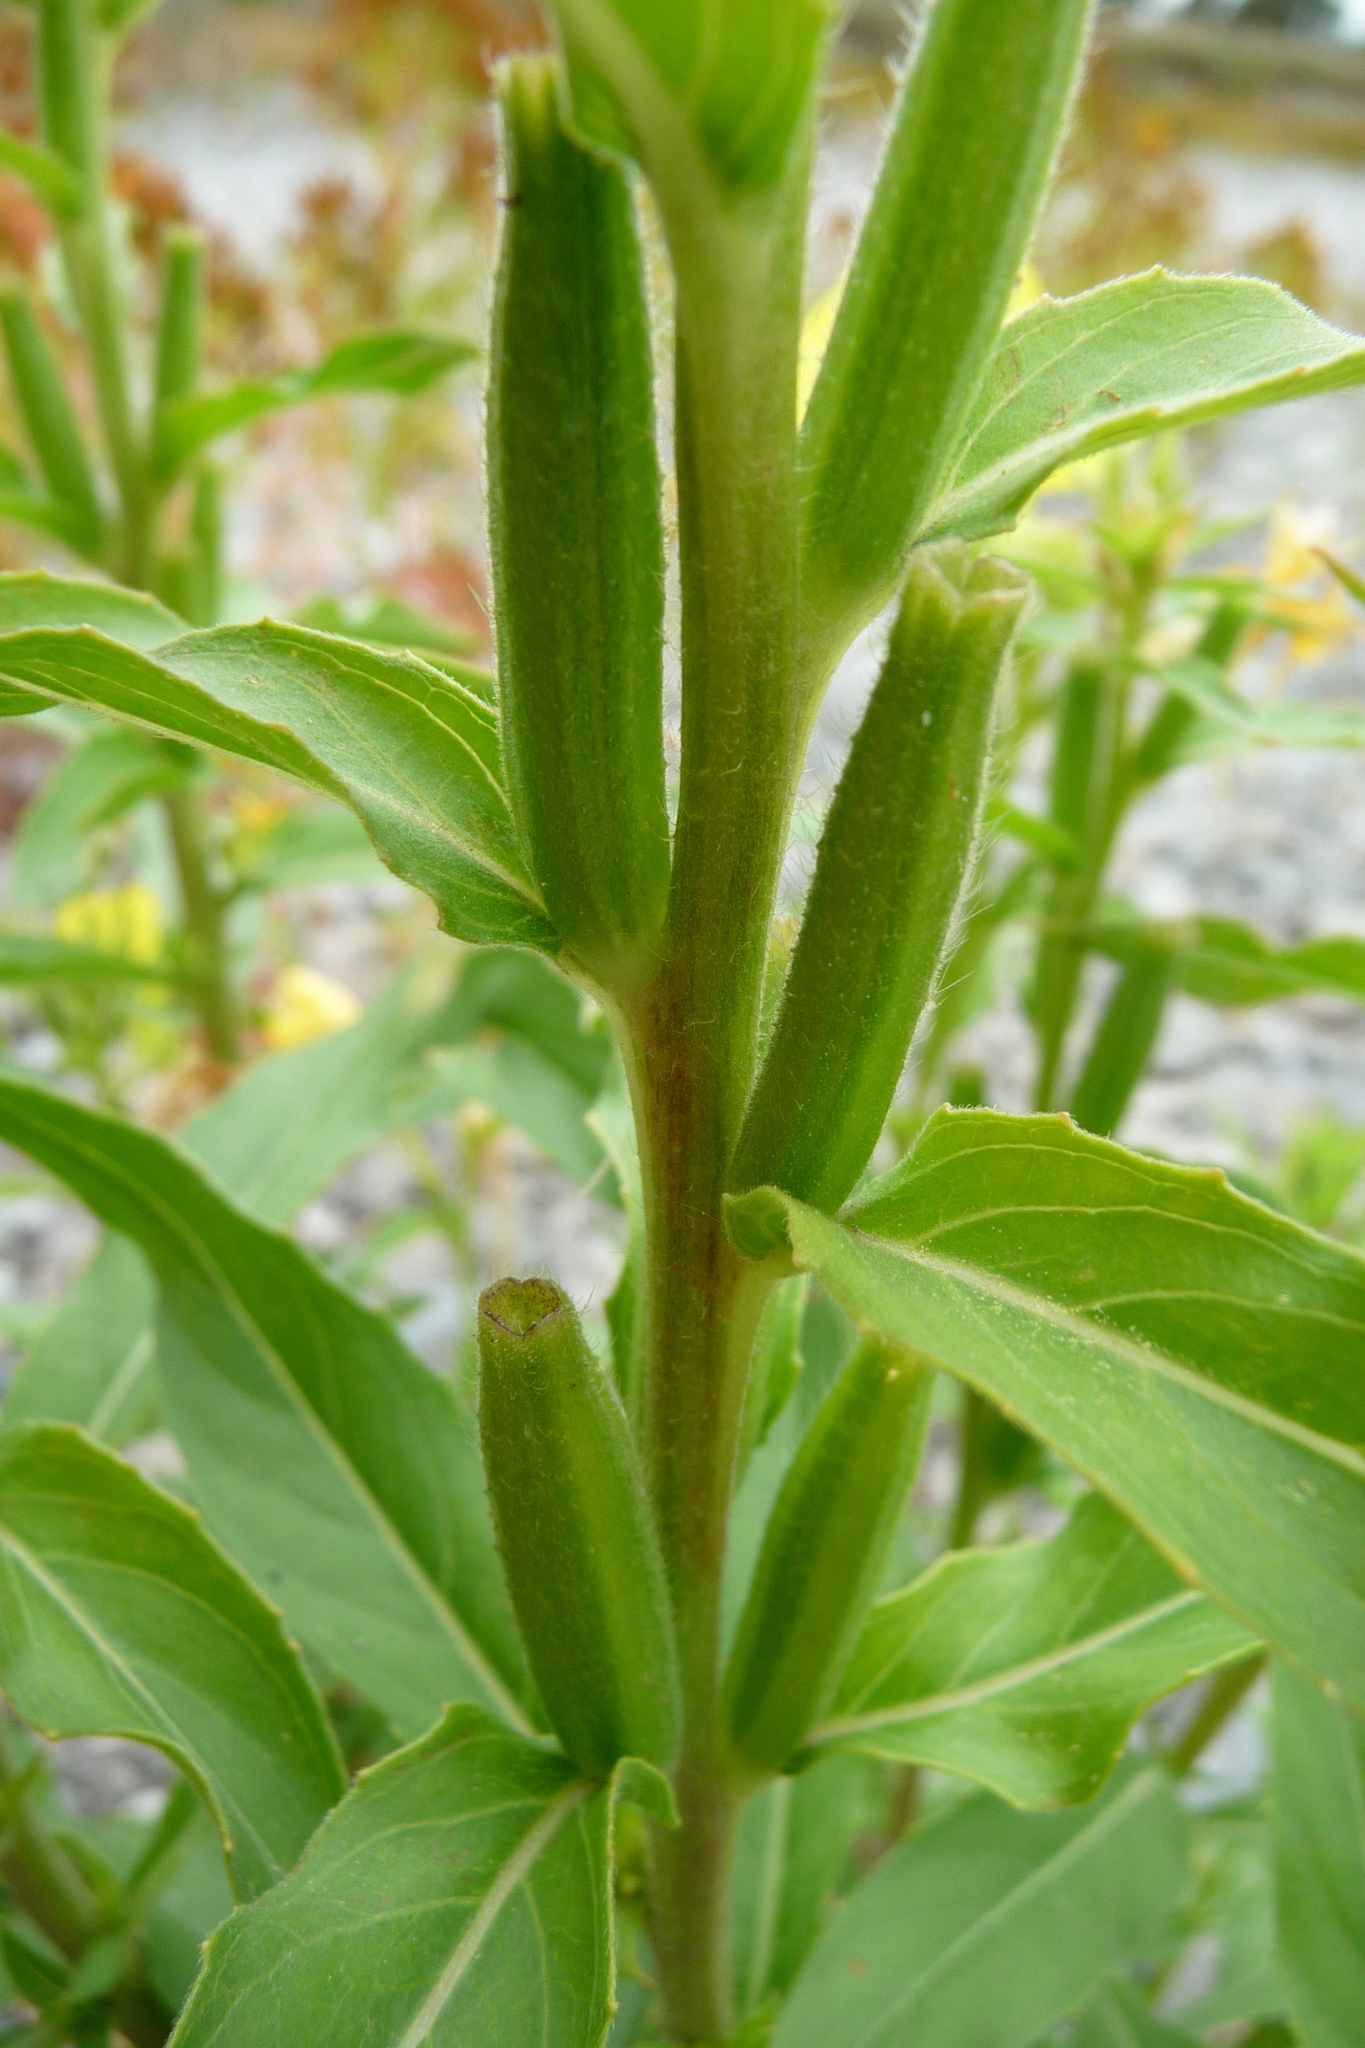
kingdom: Plantae
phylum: Tracheophyta
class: Magnoliopsida
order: Myrtales
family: Onagraceae
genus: Oenothera
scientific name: Oenothera glazioviana
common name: Large-flowered evening-primrose
